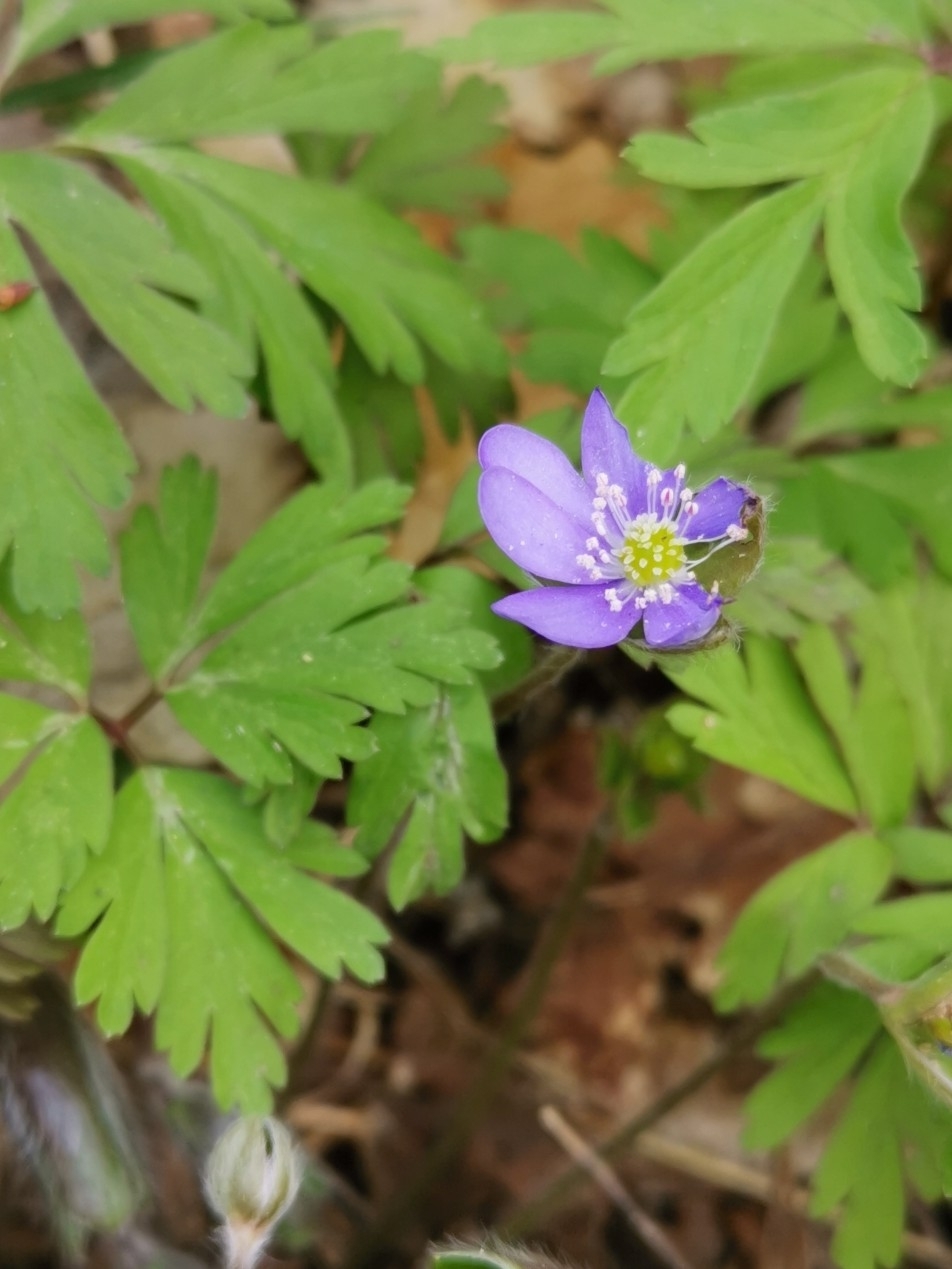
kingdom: Plantae
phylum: Tracheophyta
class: Magnoliopsida
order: Ranunculales
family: Ranunculaceae
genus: Hepatica
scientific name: Hepatica nobilis
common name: Liverleaf
